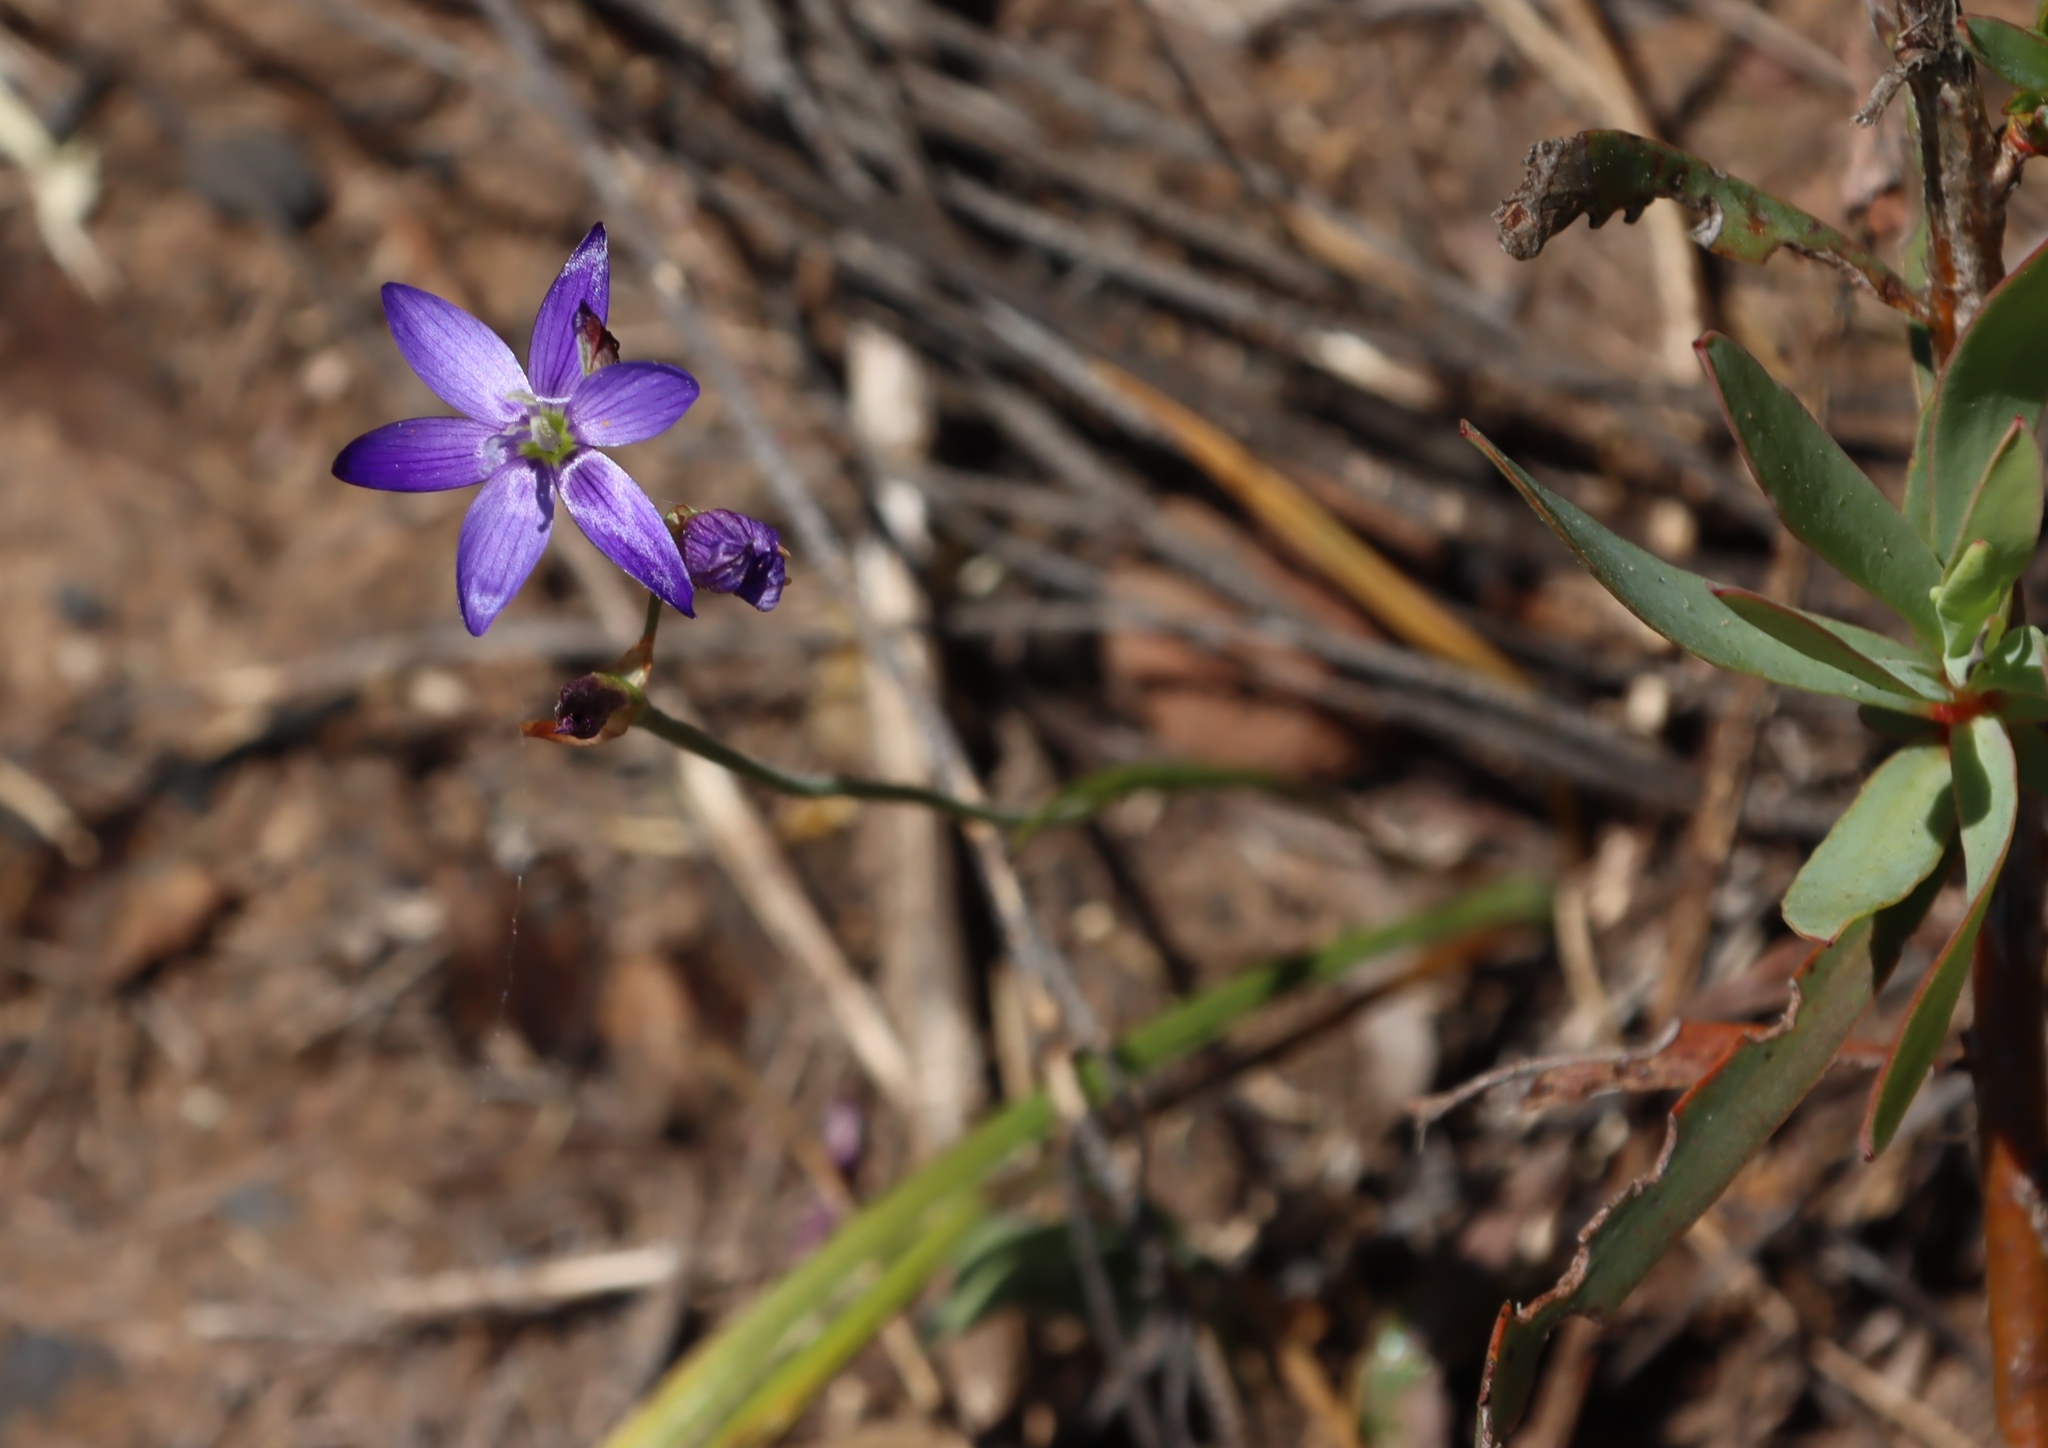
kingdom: Plantae
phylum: Tracheophyta
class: Liliopsida
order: Asparagales
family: Iridaceae
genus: Geissorhiza
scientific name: Geissorhiza aspera
